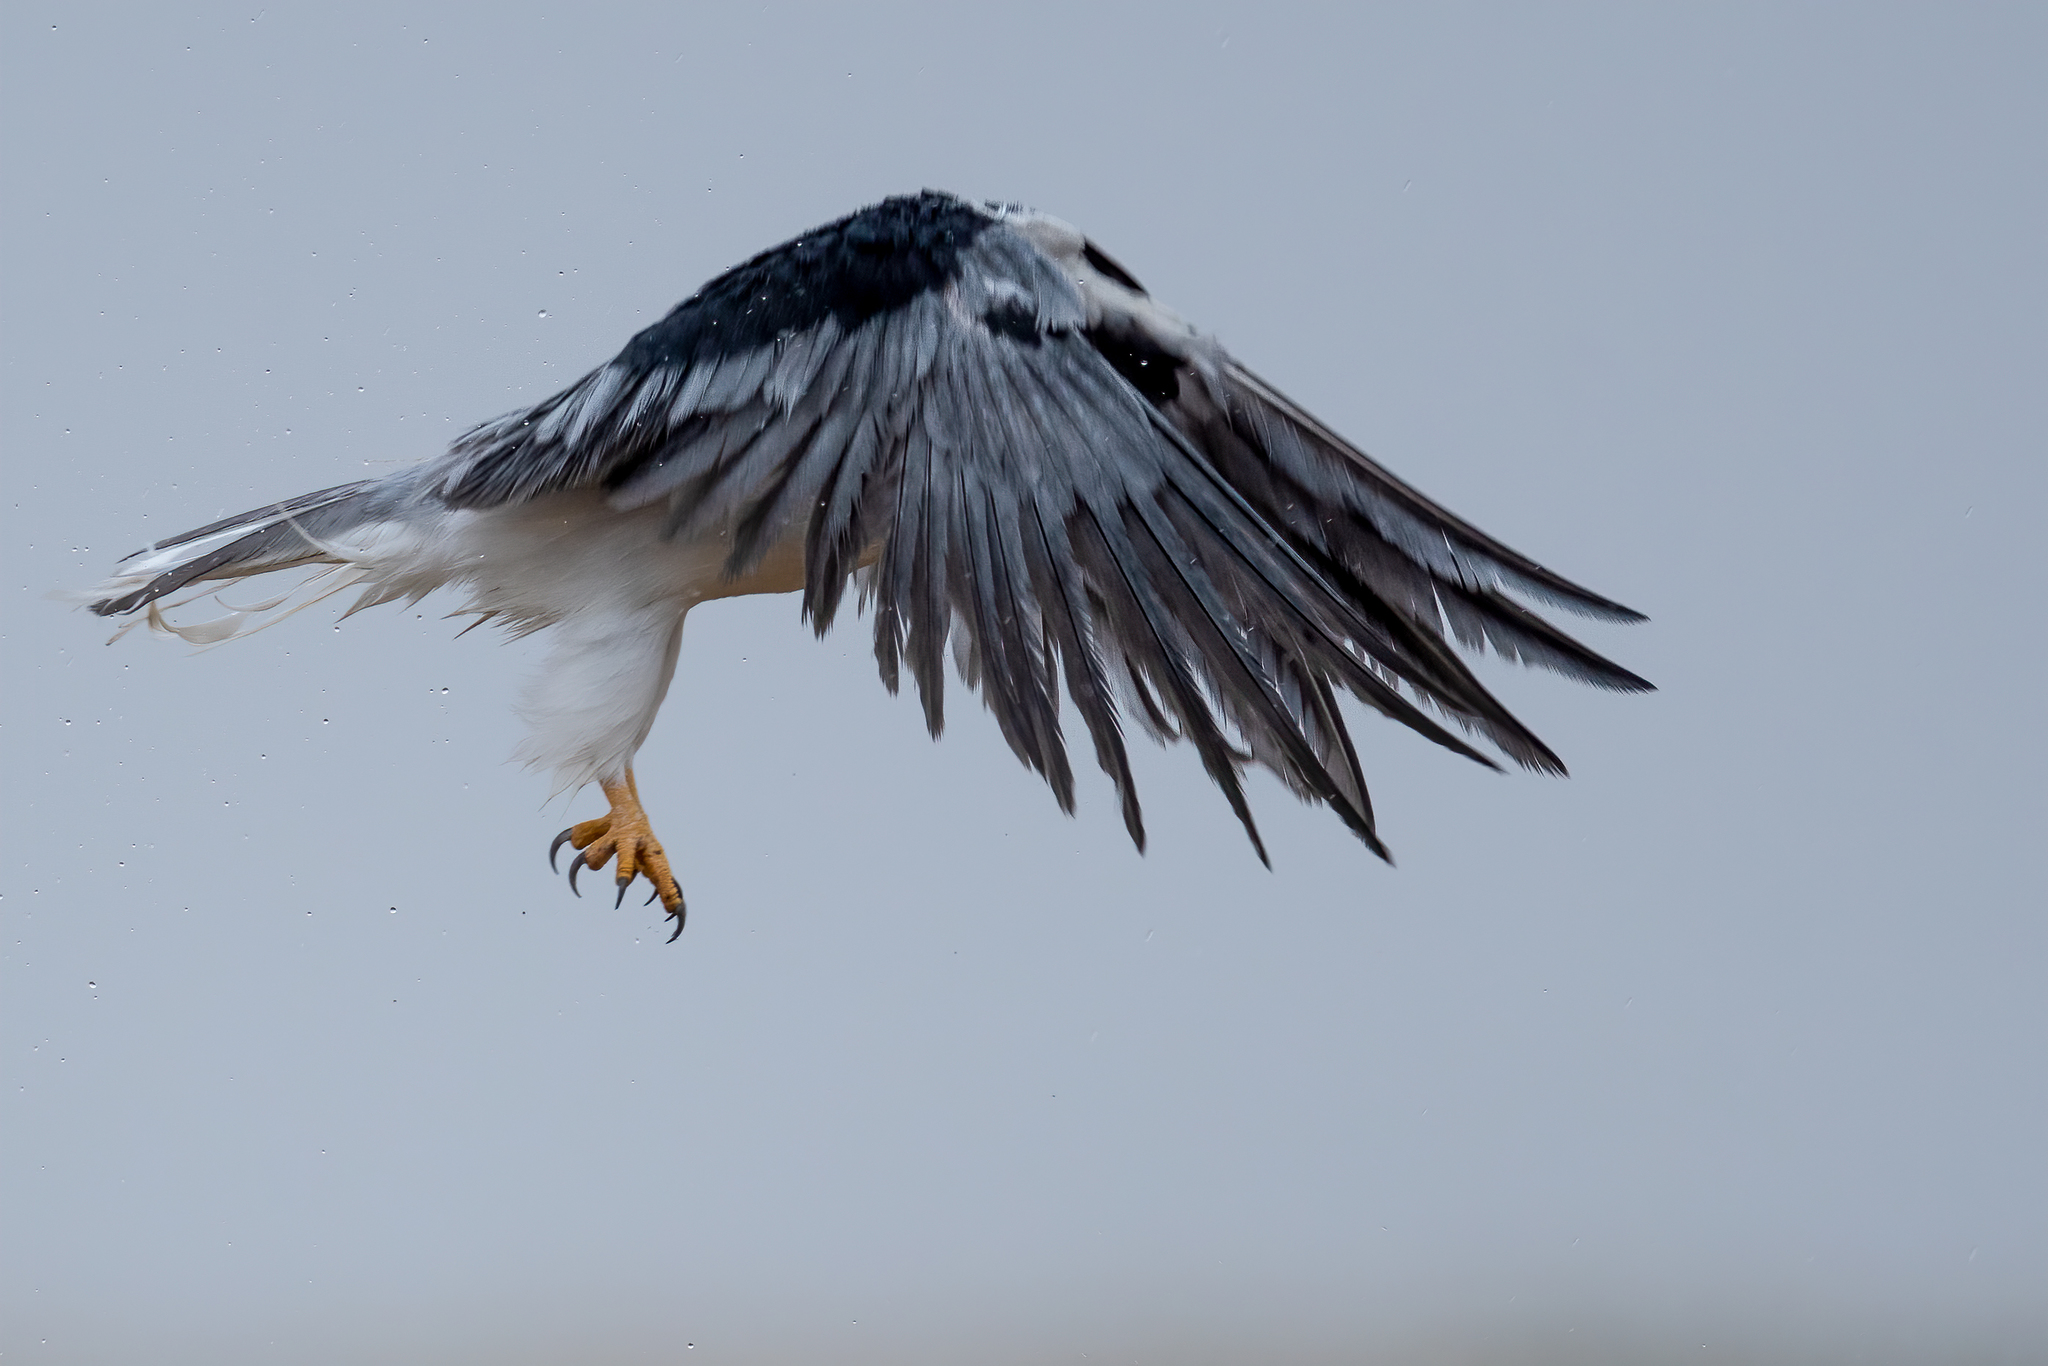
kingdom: Animalia
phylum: Chordata
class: Aves
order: Accipitriformes
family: Accipitridae
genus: Elanus
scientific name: Elanus leucurus
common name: White-tailed kite
